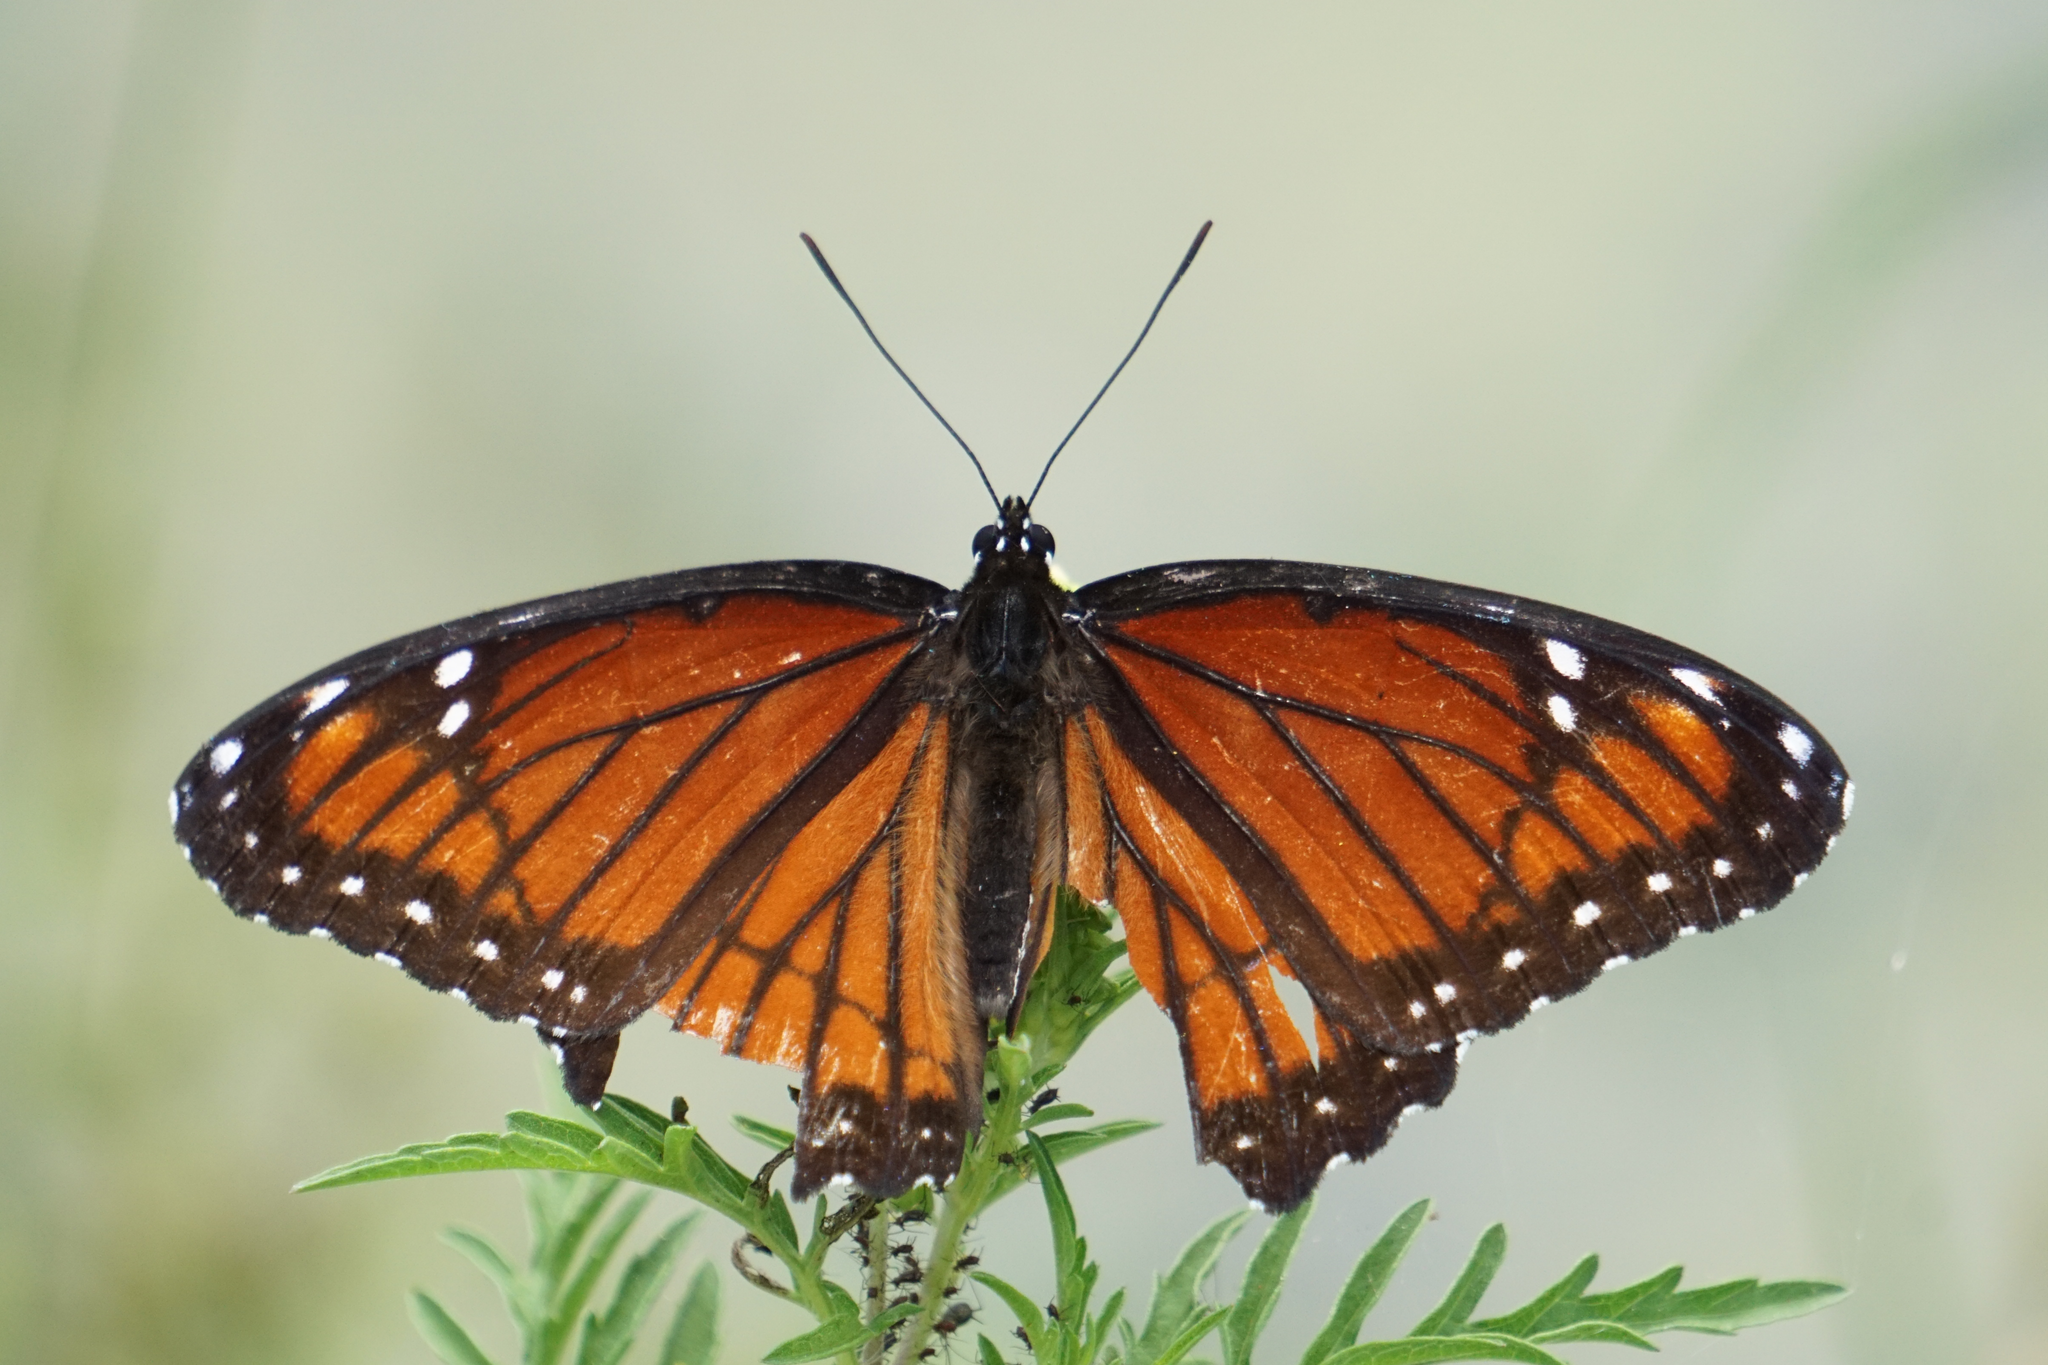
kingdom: Animalia
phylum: Arthropoda
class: Insecta
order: Lepidoptera
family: Nymphalidae
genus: Limenitis
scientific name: Limenitis archippus
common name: Viceroy
